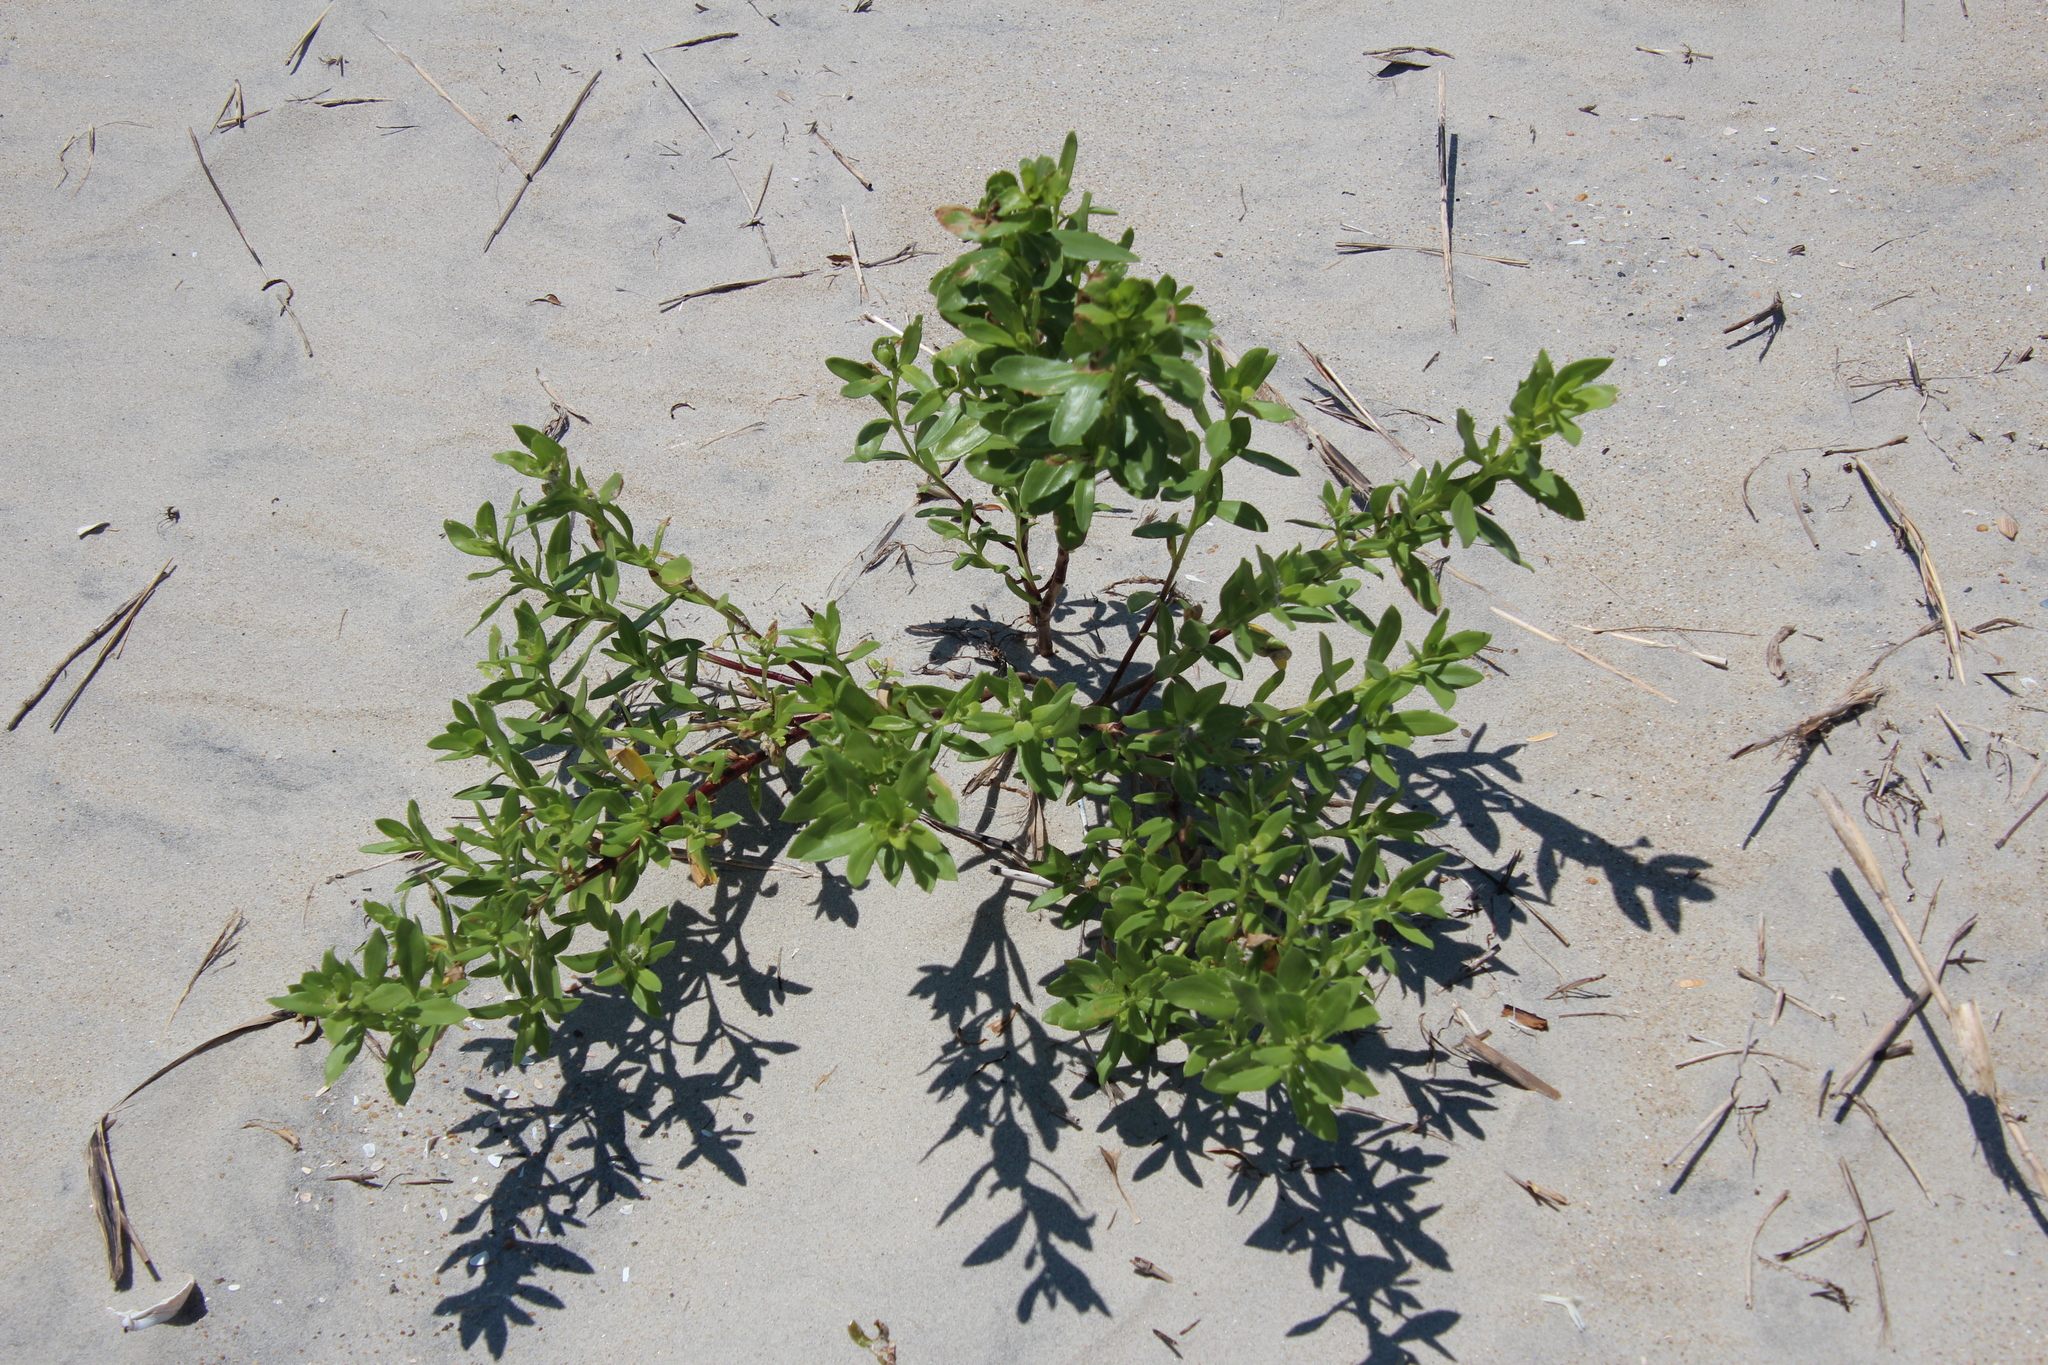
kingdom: Plantae
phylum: Tracheophyta
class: Magnoliopsida
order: Asterales
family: Asteraceae
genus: Iva
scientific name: Iva imbricata
